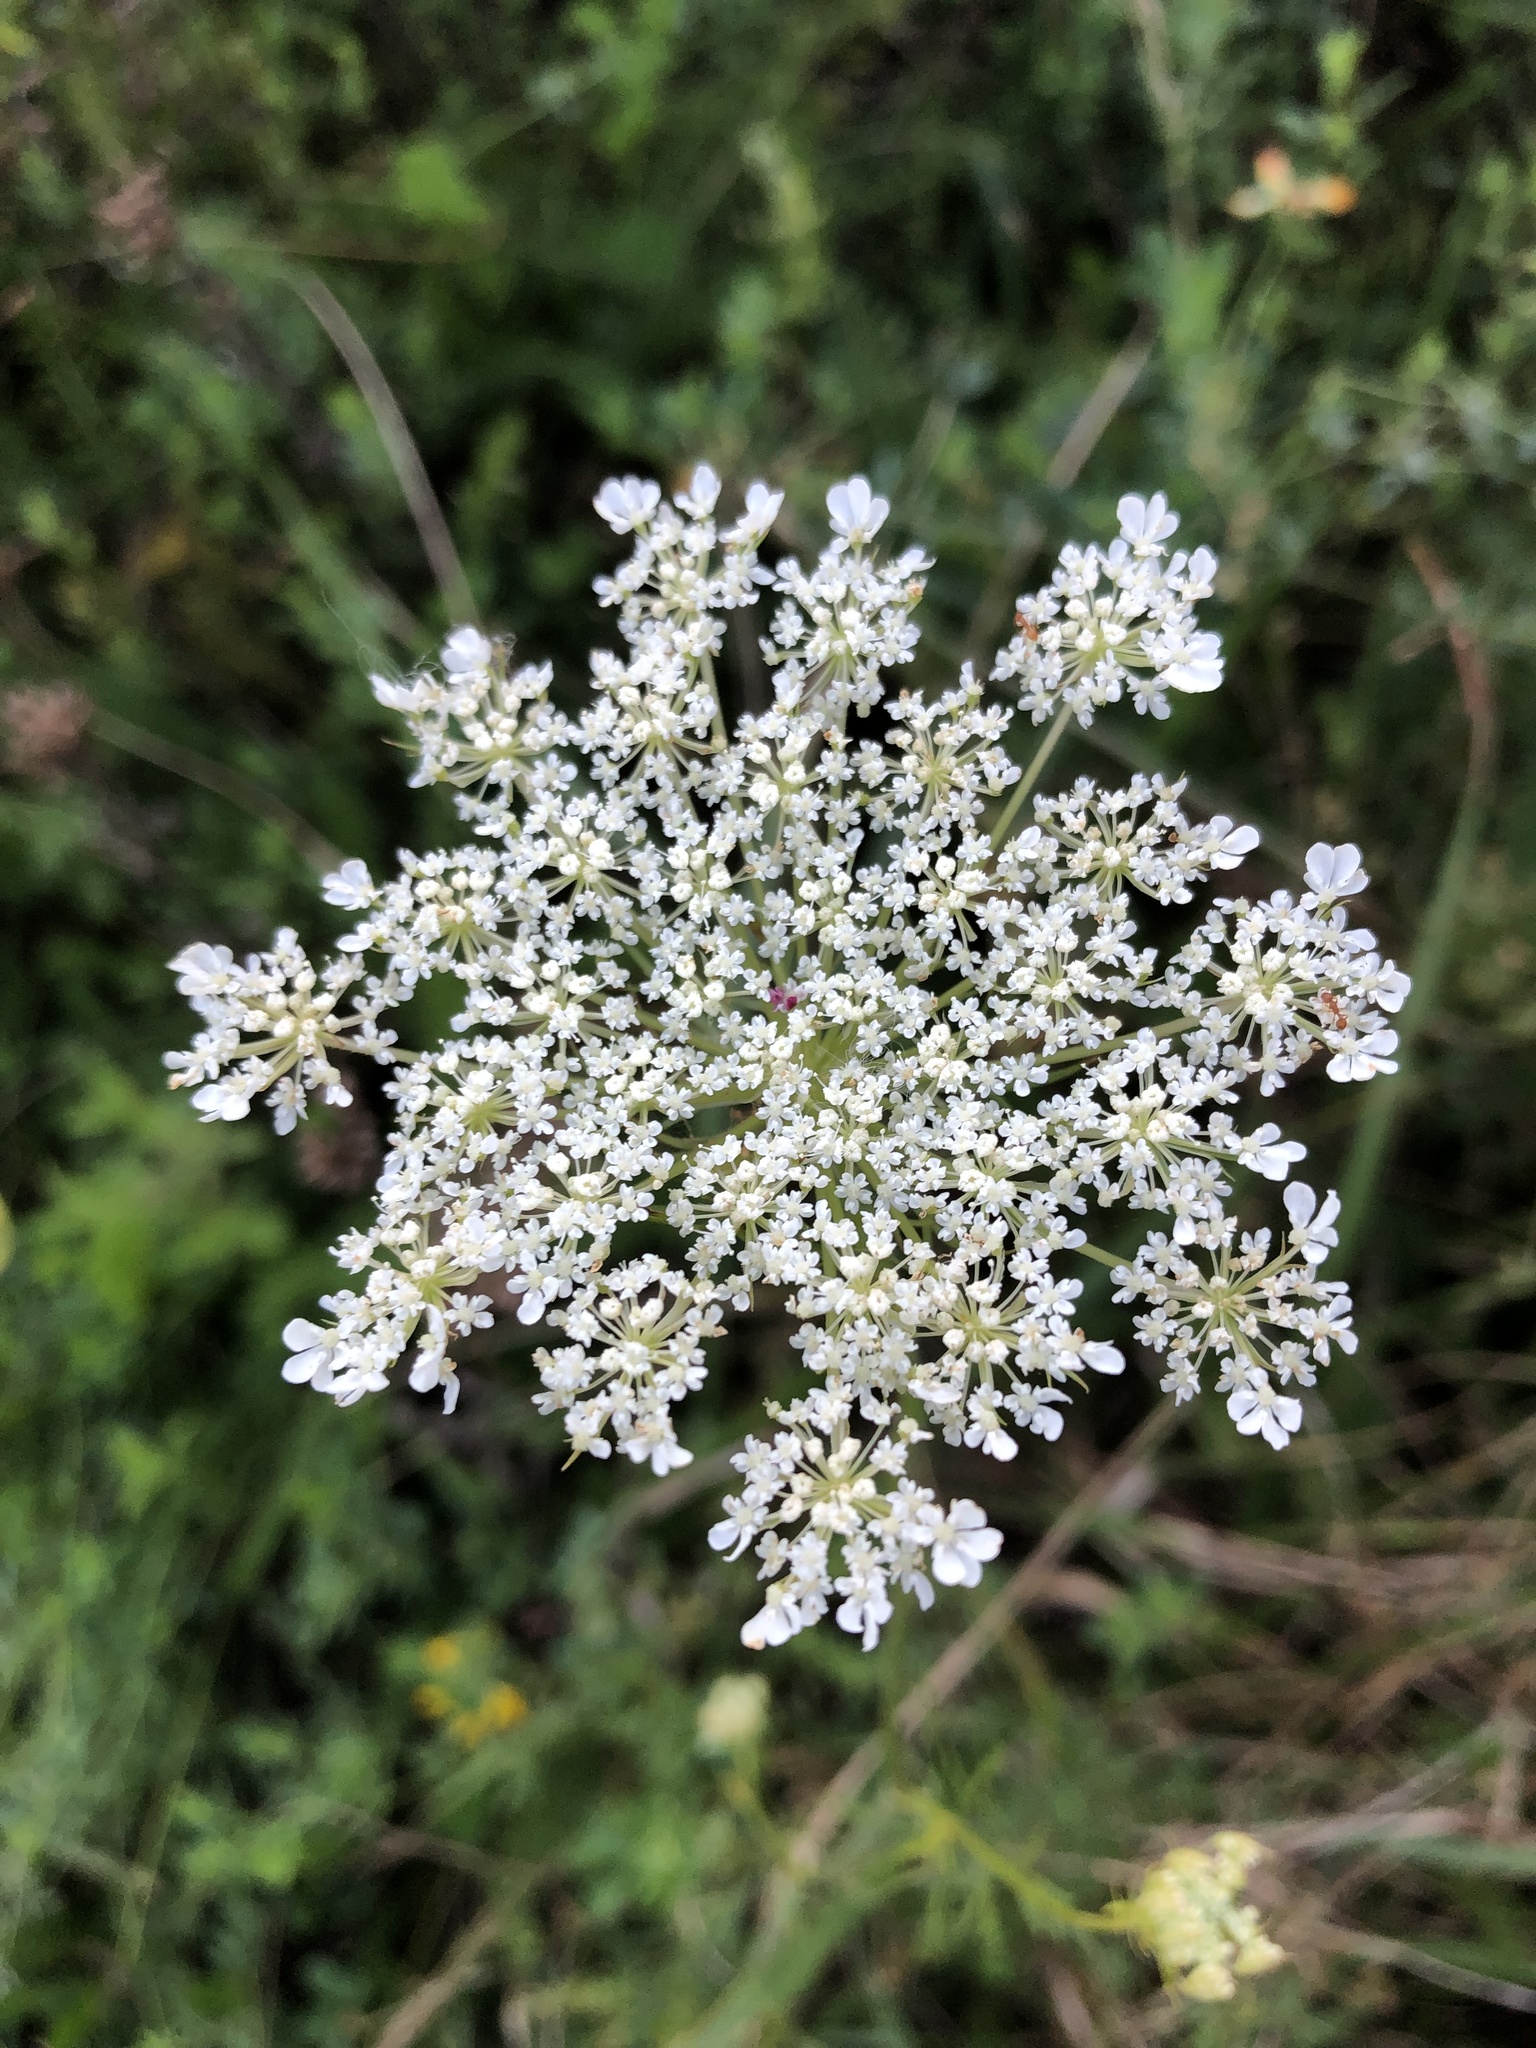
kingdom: Plantae
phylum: Tracheophyta
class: Magnoliopsida
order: Apiales
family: Apiaceae
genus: Daucus
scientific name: Daucus carota
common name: Wild carrot
